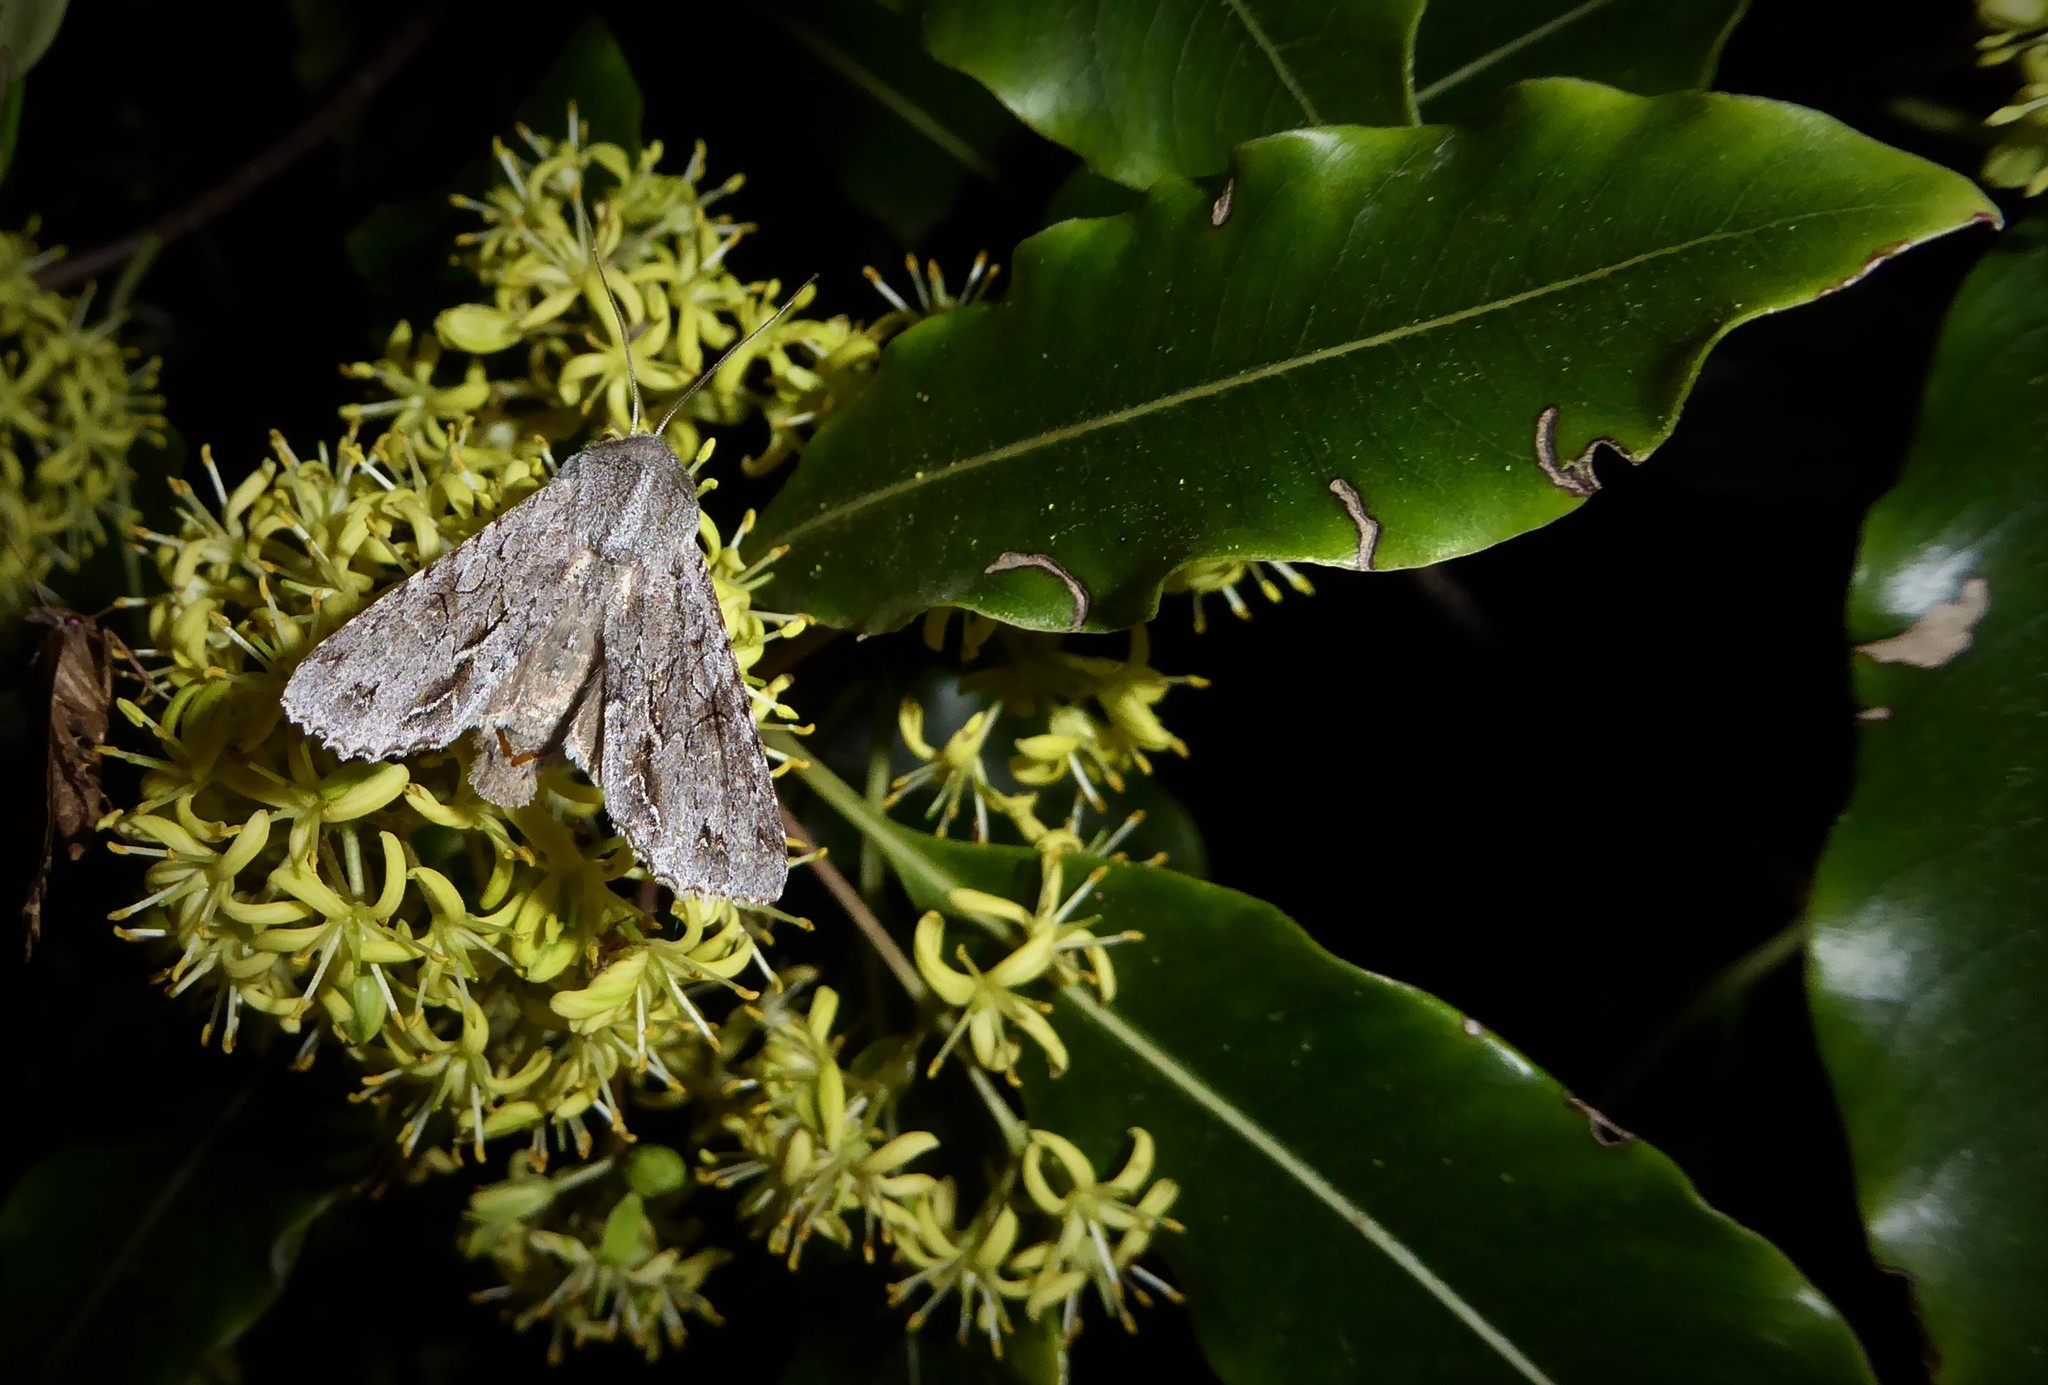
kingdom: Animalia
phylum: Arthropoda
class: Insecta
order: Lepidoptera
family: Noctuidae
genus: Ichneutica
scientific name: Ichneutica
